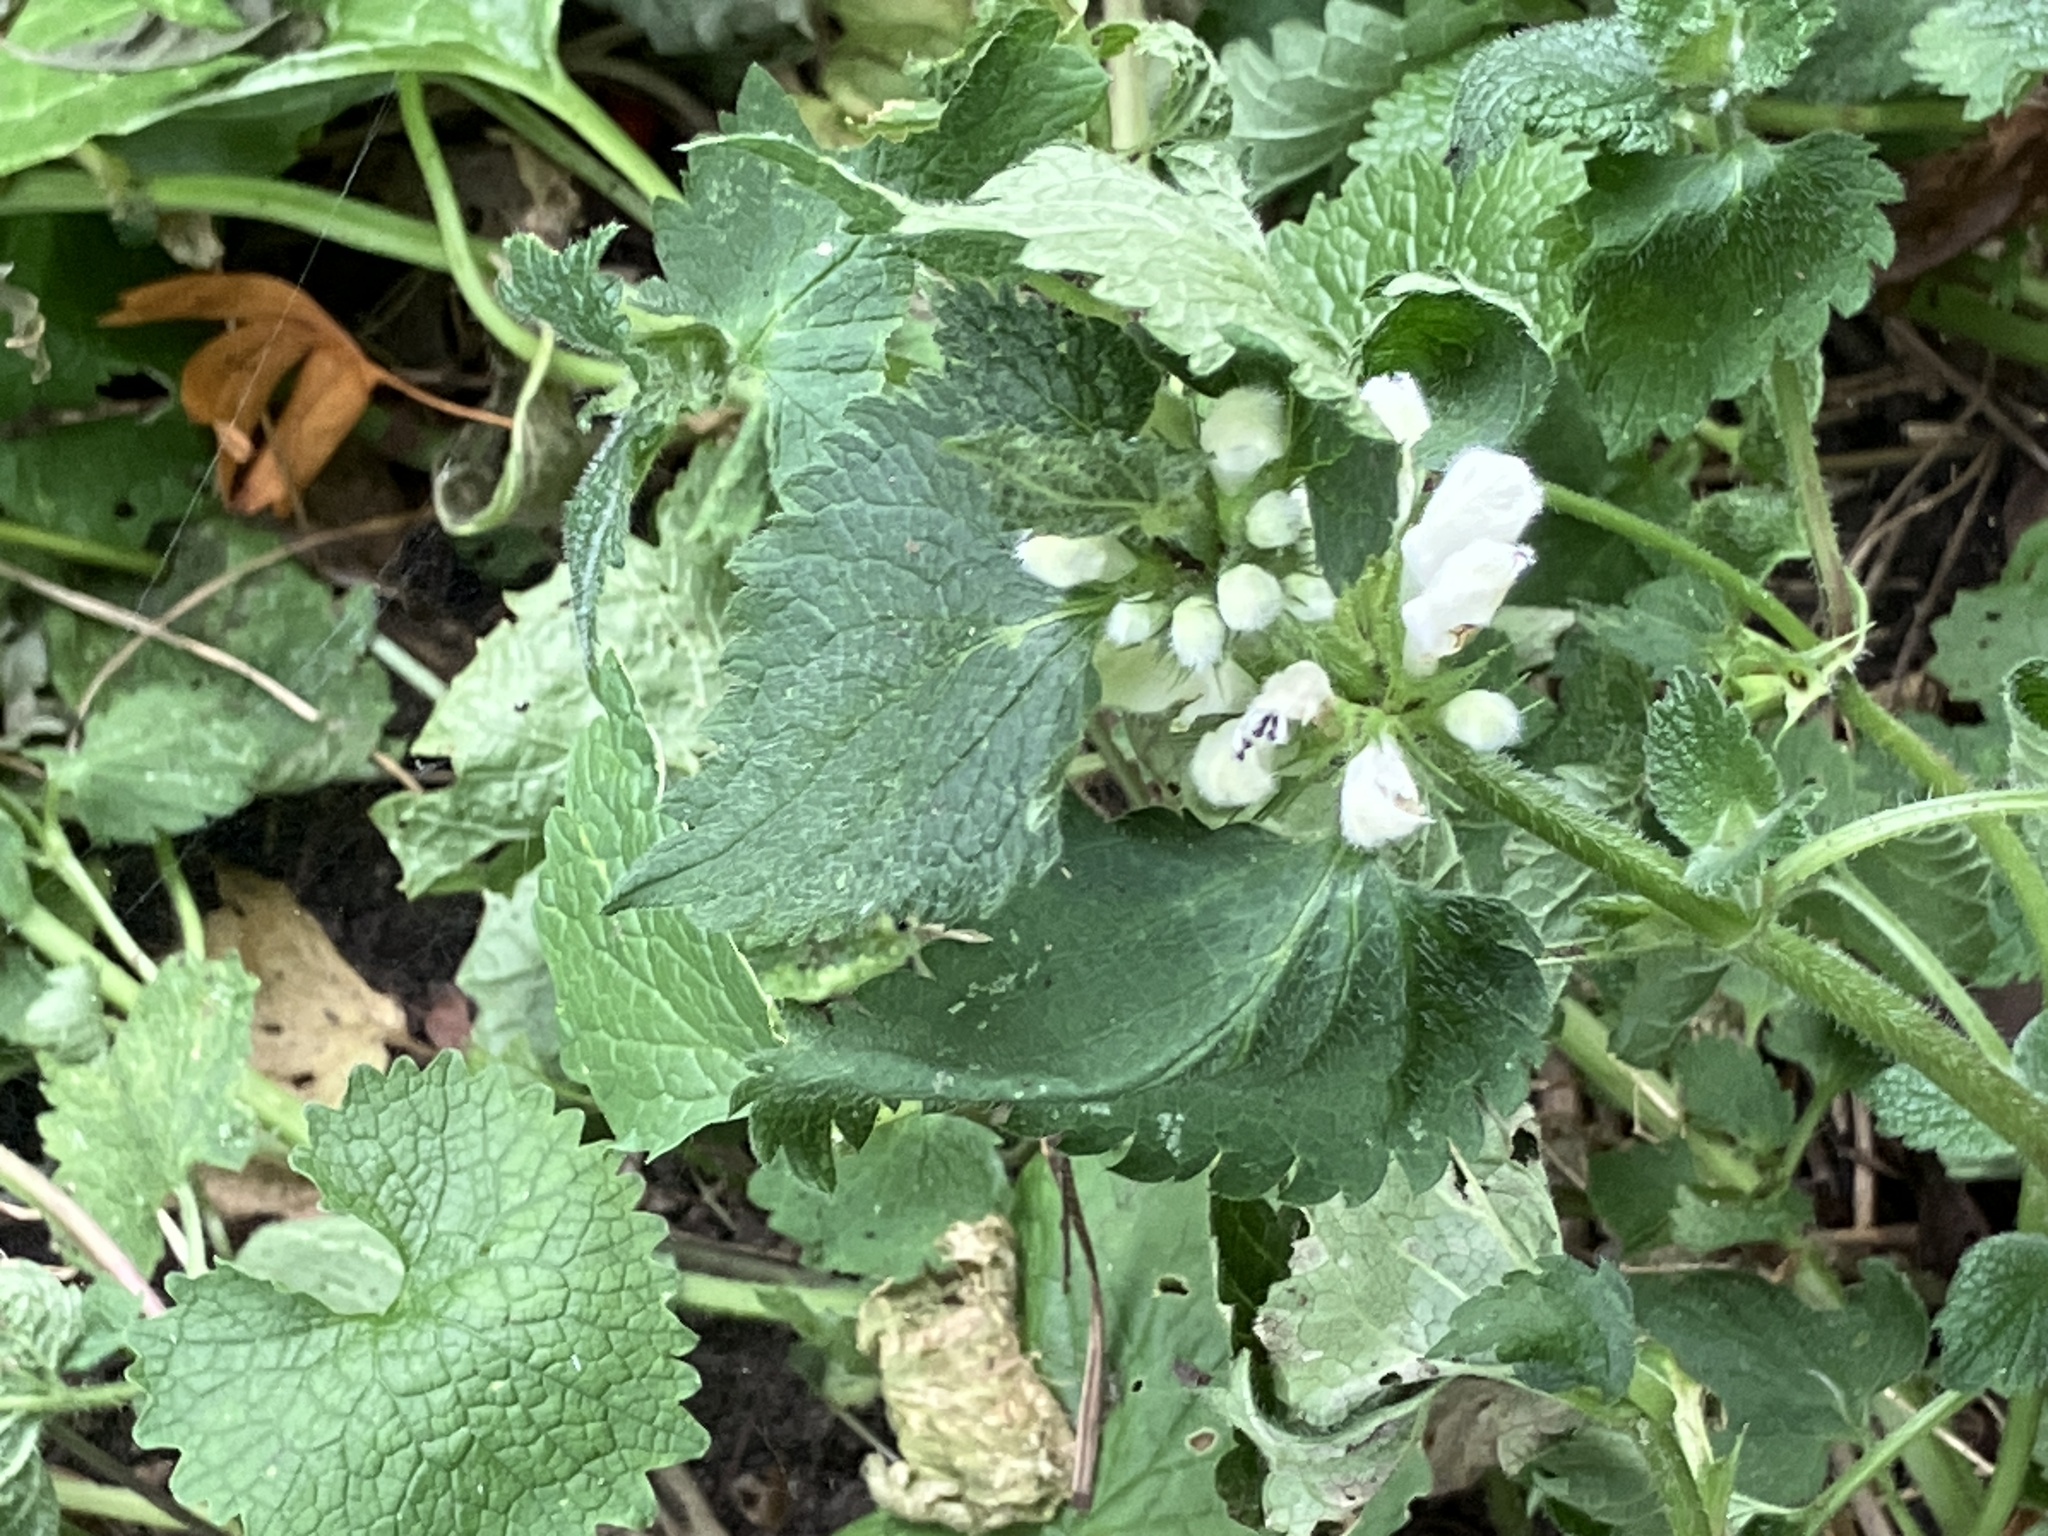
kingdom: Plantae
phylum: Tracheophyta
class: Magnoliopsida
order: Lamiales
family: Lamiaceae
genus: Lamium
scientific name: Lamium album
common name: White dead-nettle
